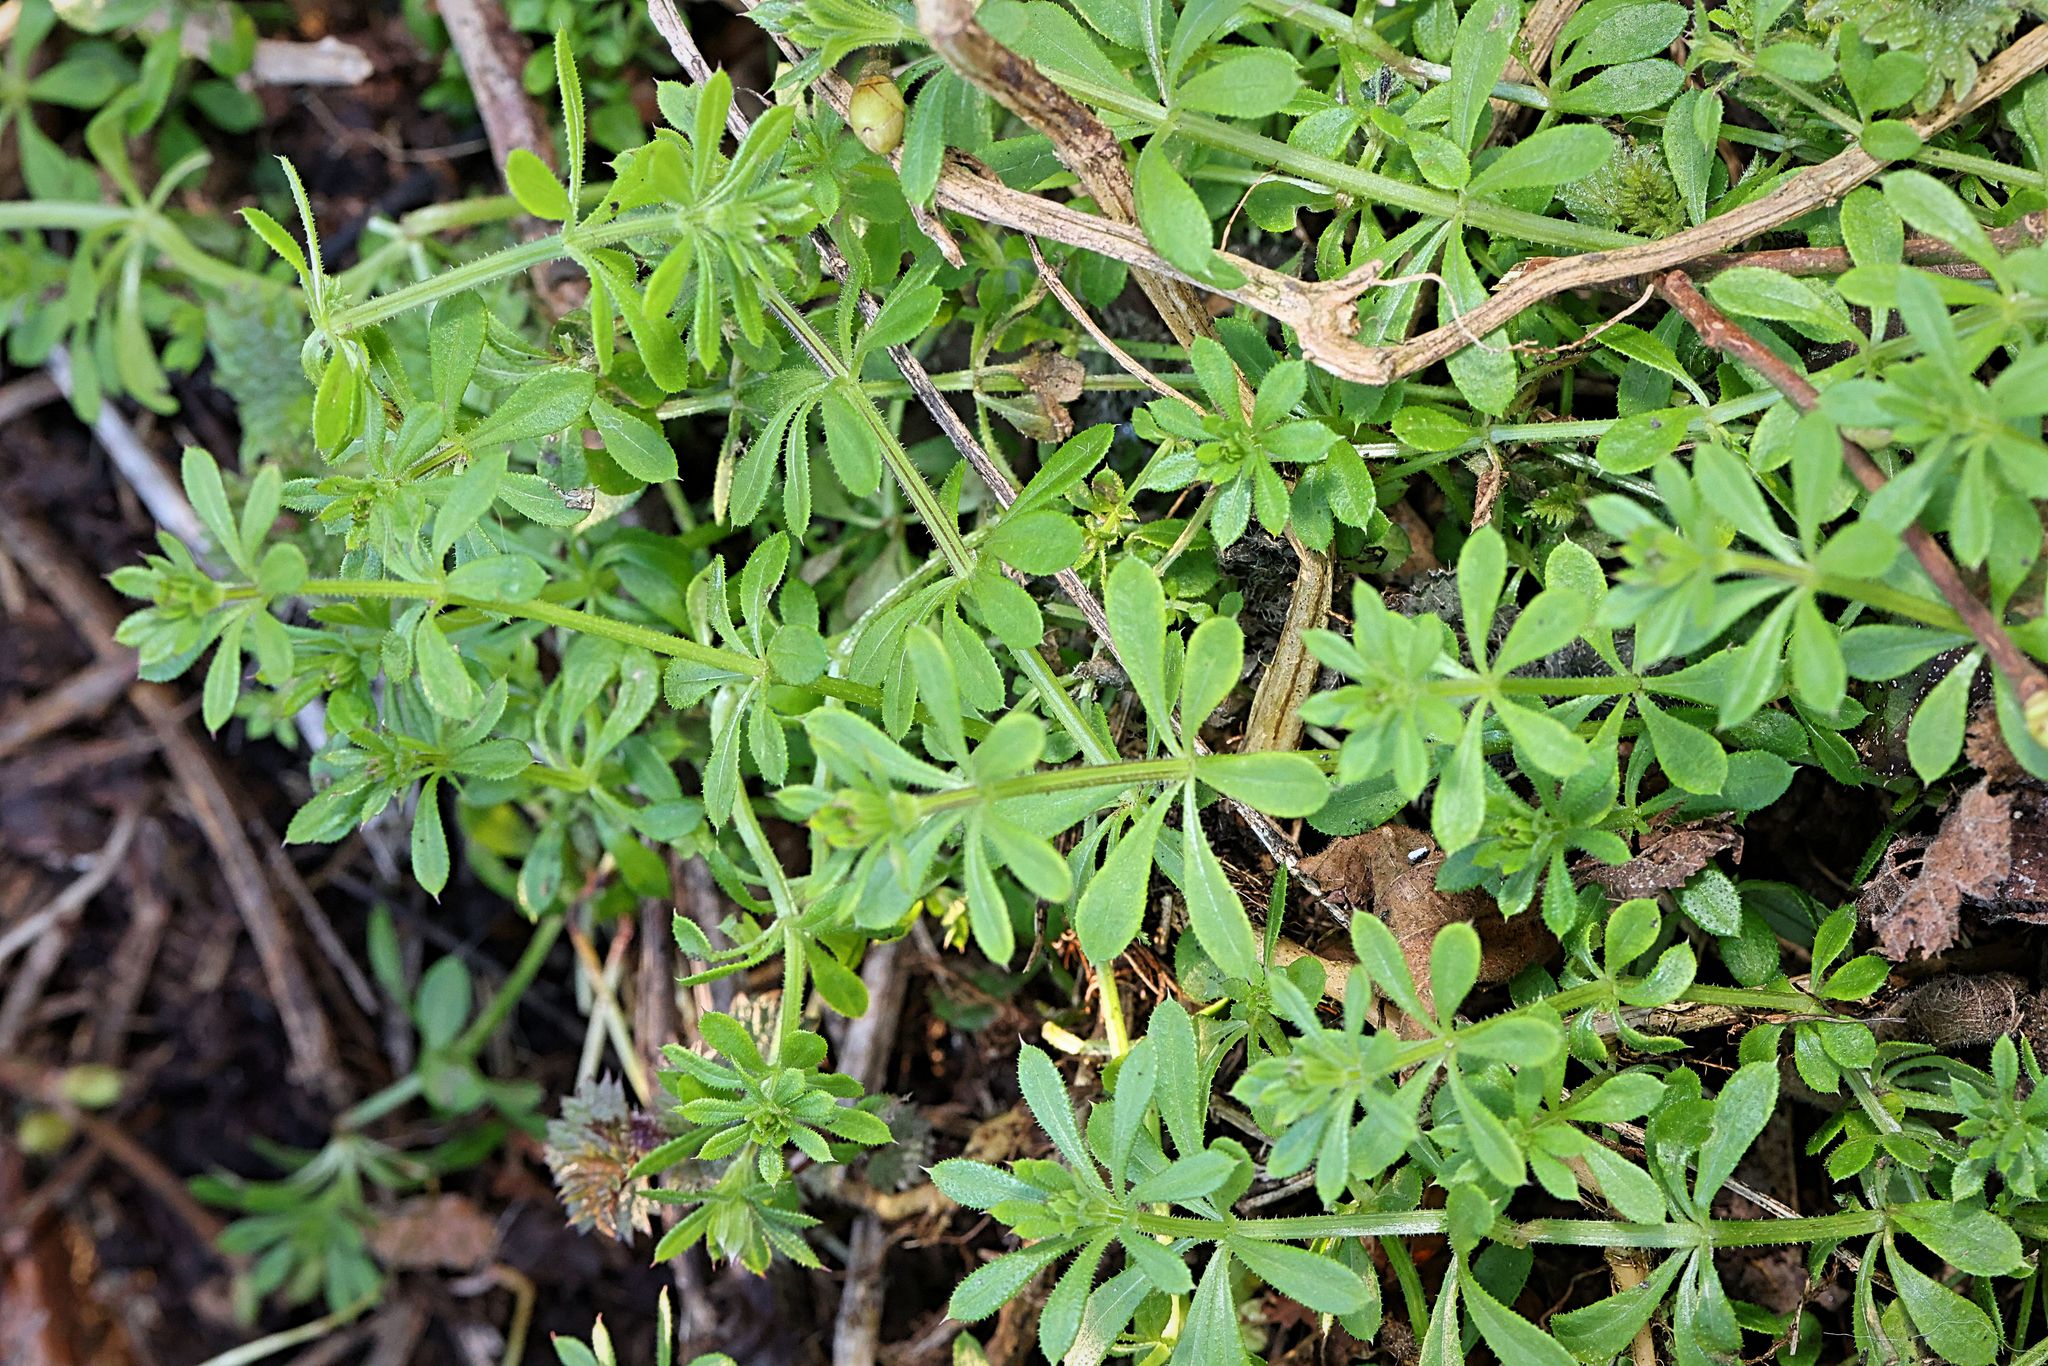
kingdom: Plantae
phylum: Tracheophyta
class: Magnoliopsida
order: Gentianales
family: Rubiaceae
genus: Galium
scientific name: Galium aparine
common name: Cleavers
